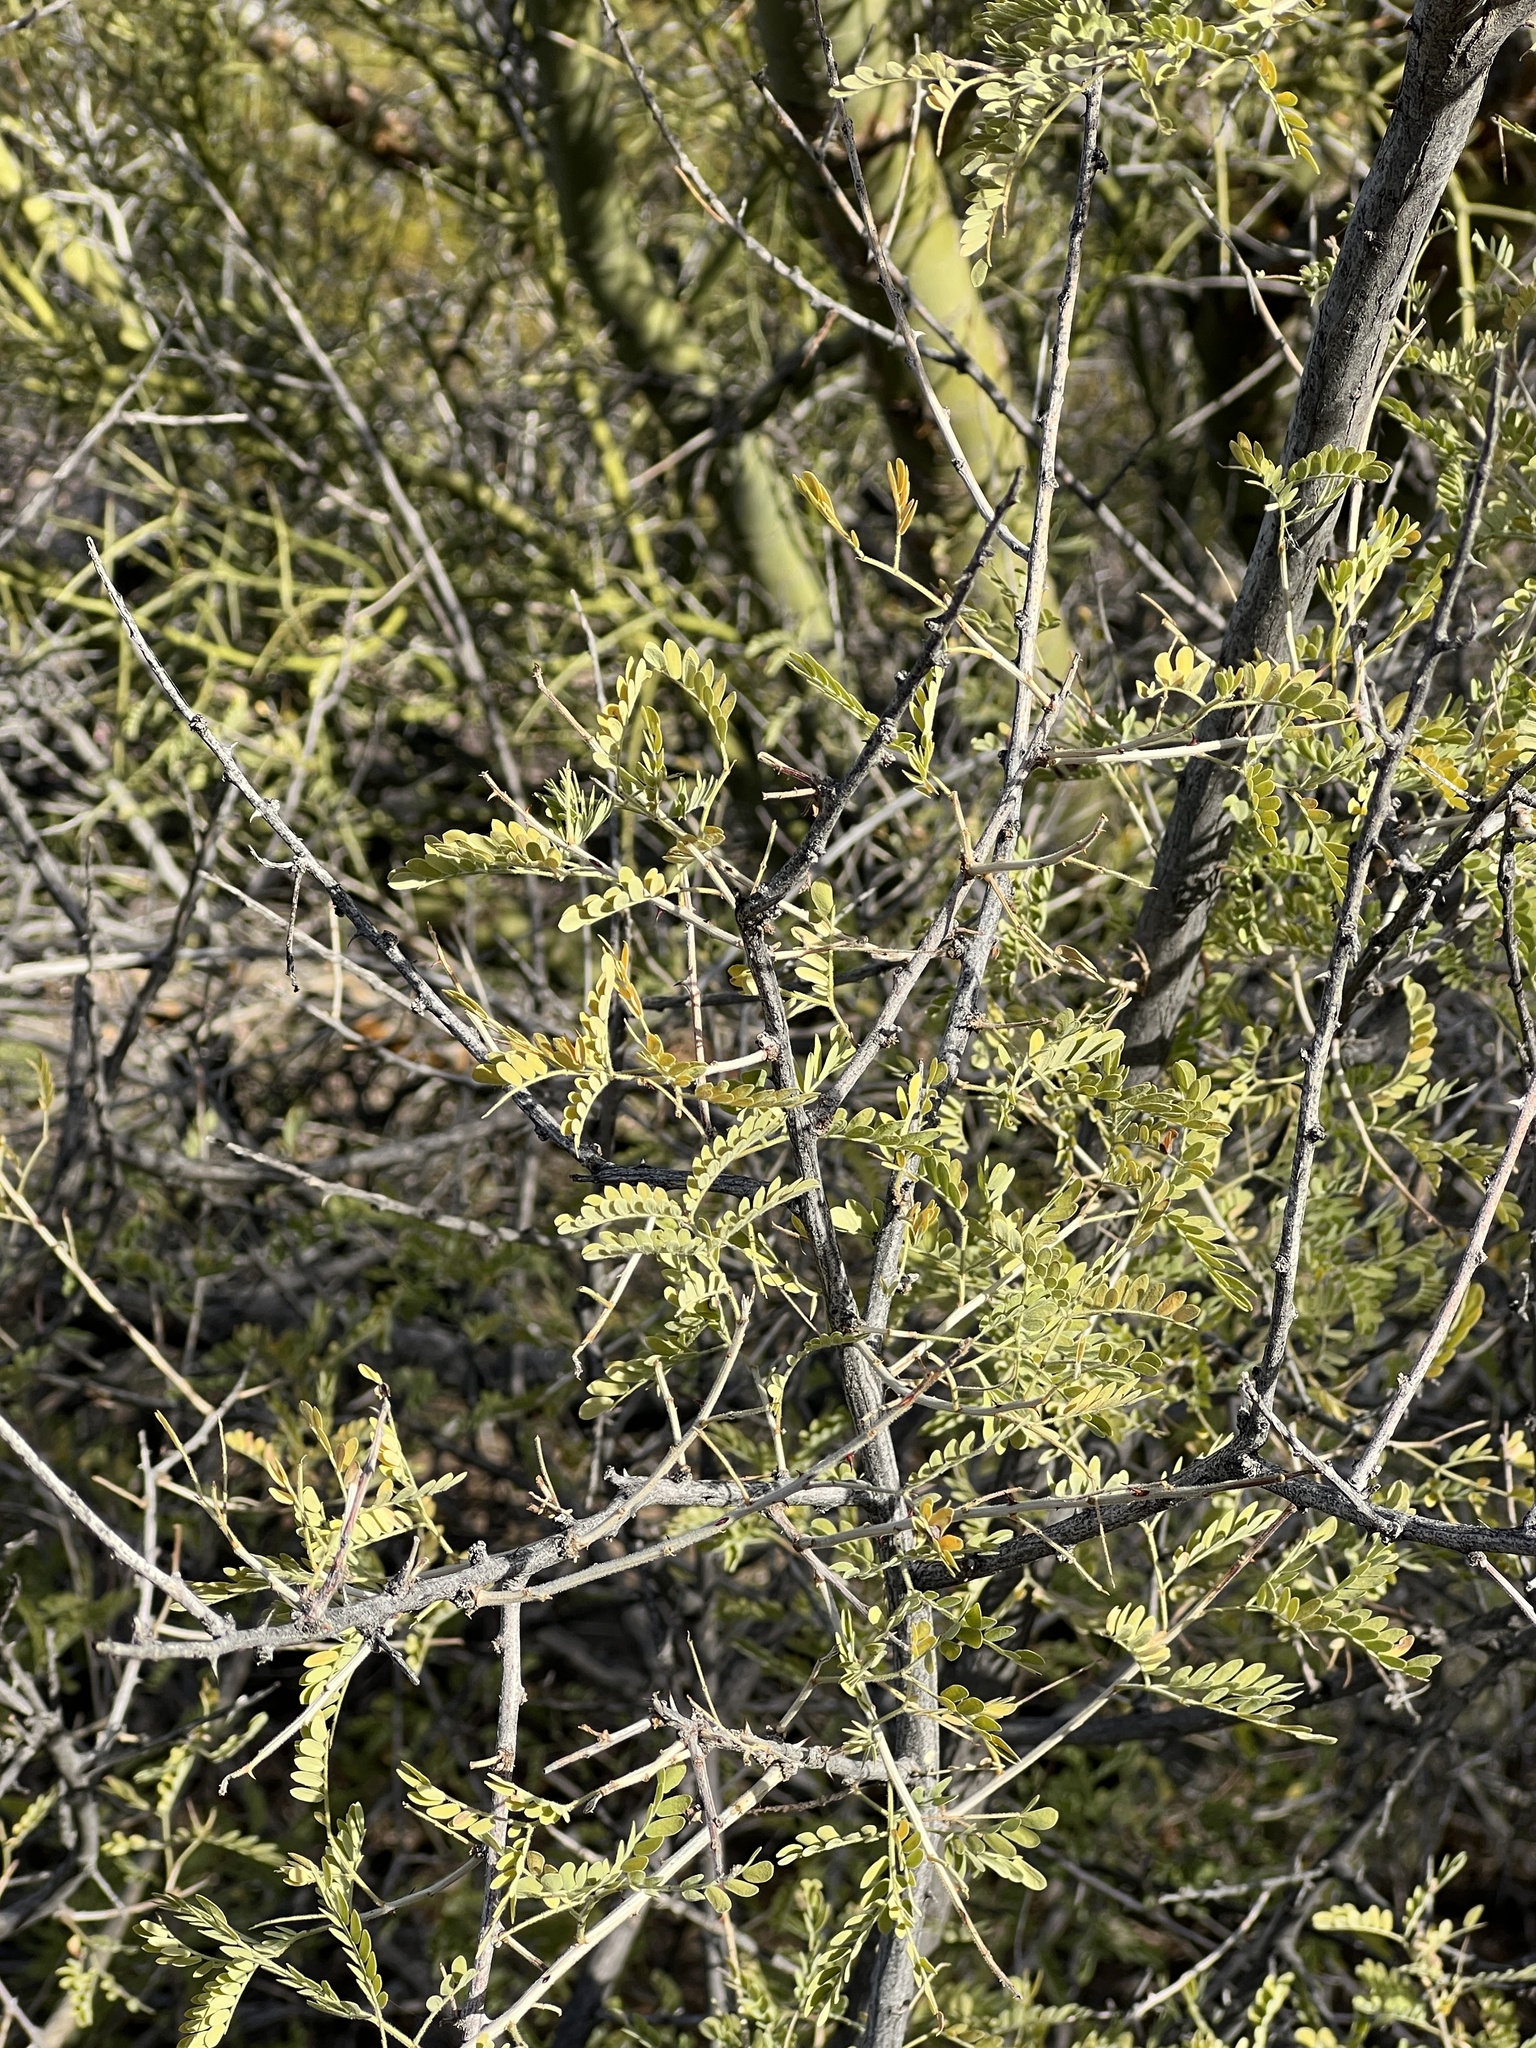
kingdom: Plantae
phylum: Tracheophyta
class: Magnoliopsida
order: Fabales
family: Fabaceae
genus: Senegalia
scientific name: Senegalia greggii
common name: Texas-mimosa
